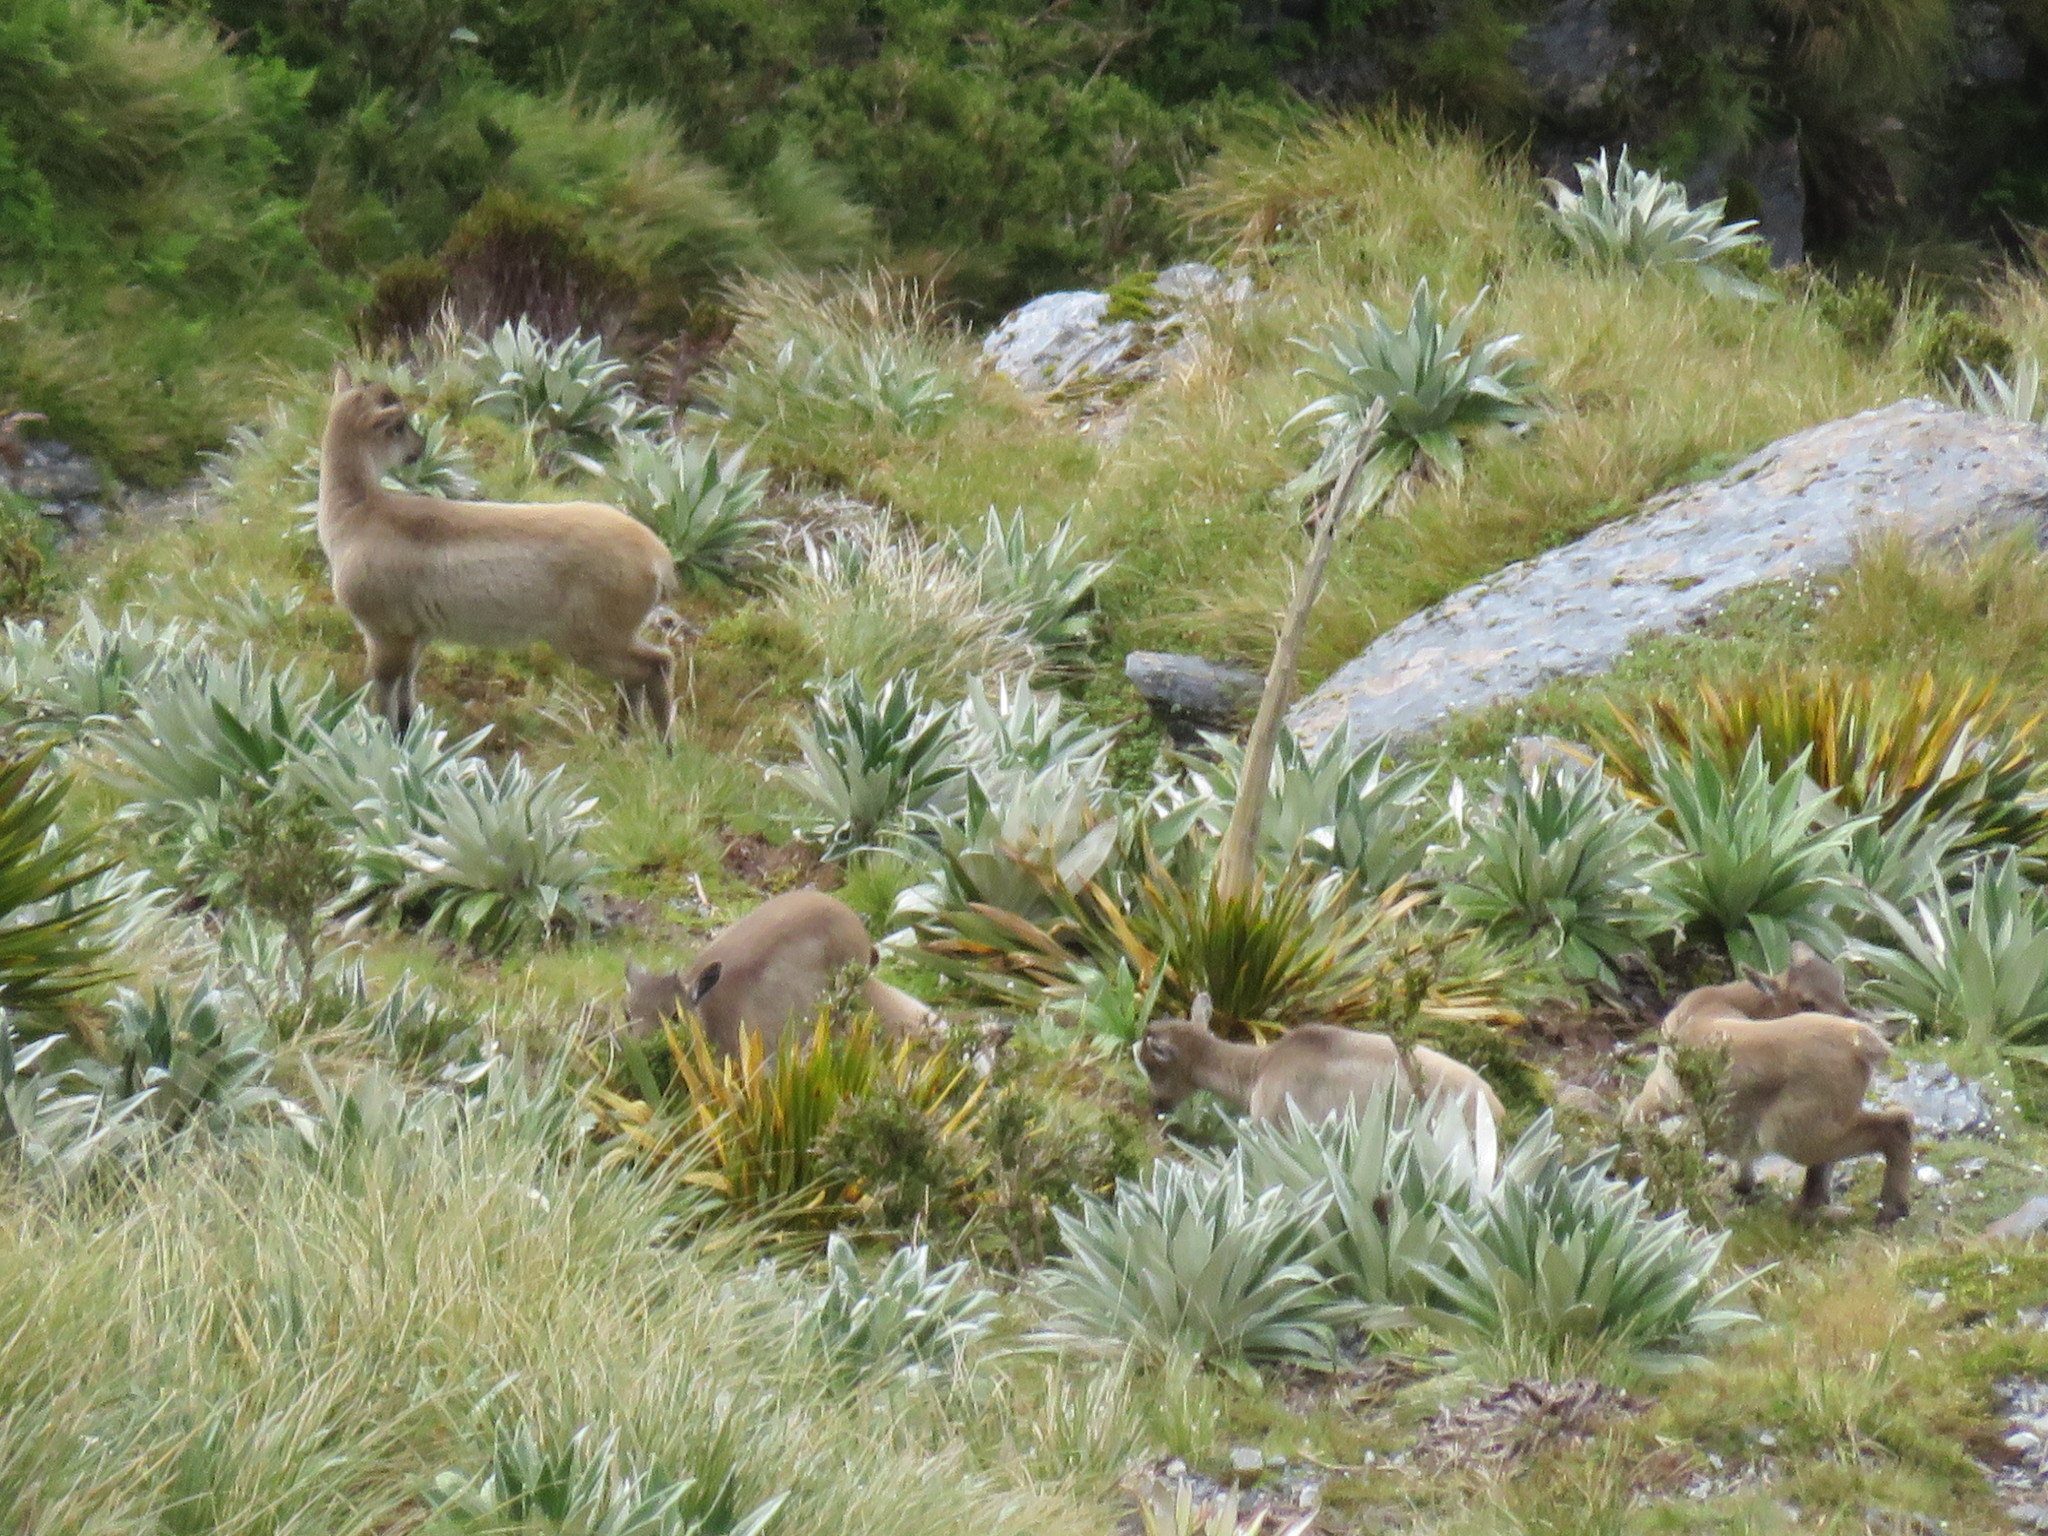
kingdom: Animalia
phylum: Chordata
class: Mammalia
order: Artiodactyla
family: Bovidae
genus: Hemitragus
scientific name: Hemitragus jemlahicus
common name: Himalayan tahr
